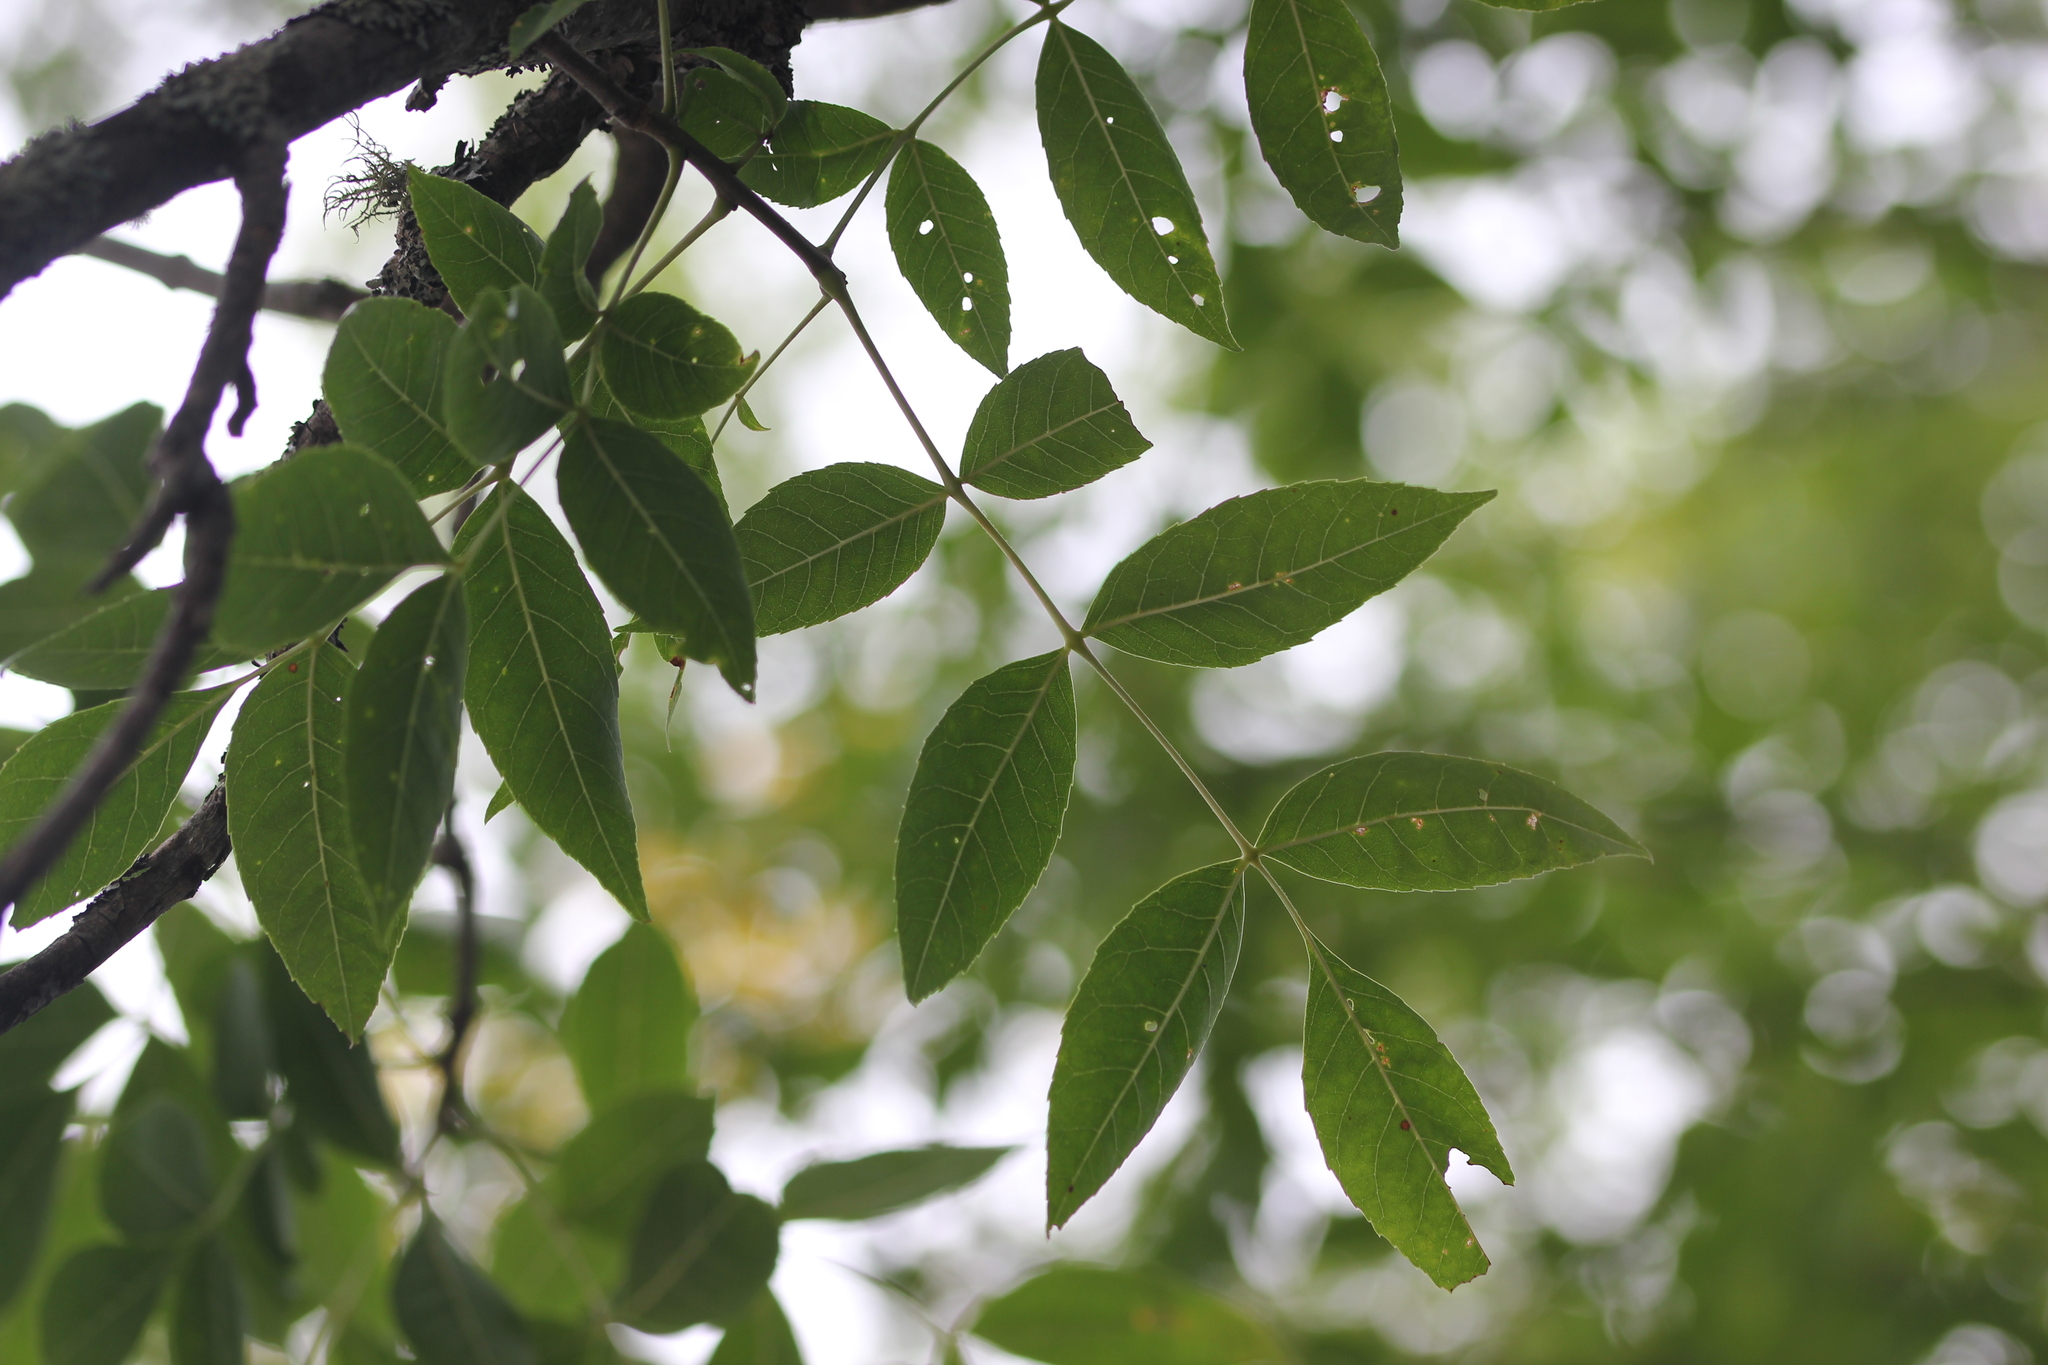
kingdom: Plantae
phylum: Tracheophyta
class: Magnoliopsida
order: Lamiales
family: Oleaceae
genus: Fraxinus
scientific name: Fraxinus pennsylvanica
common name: Green ash
